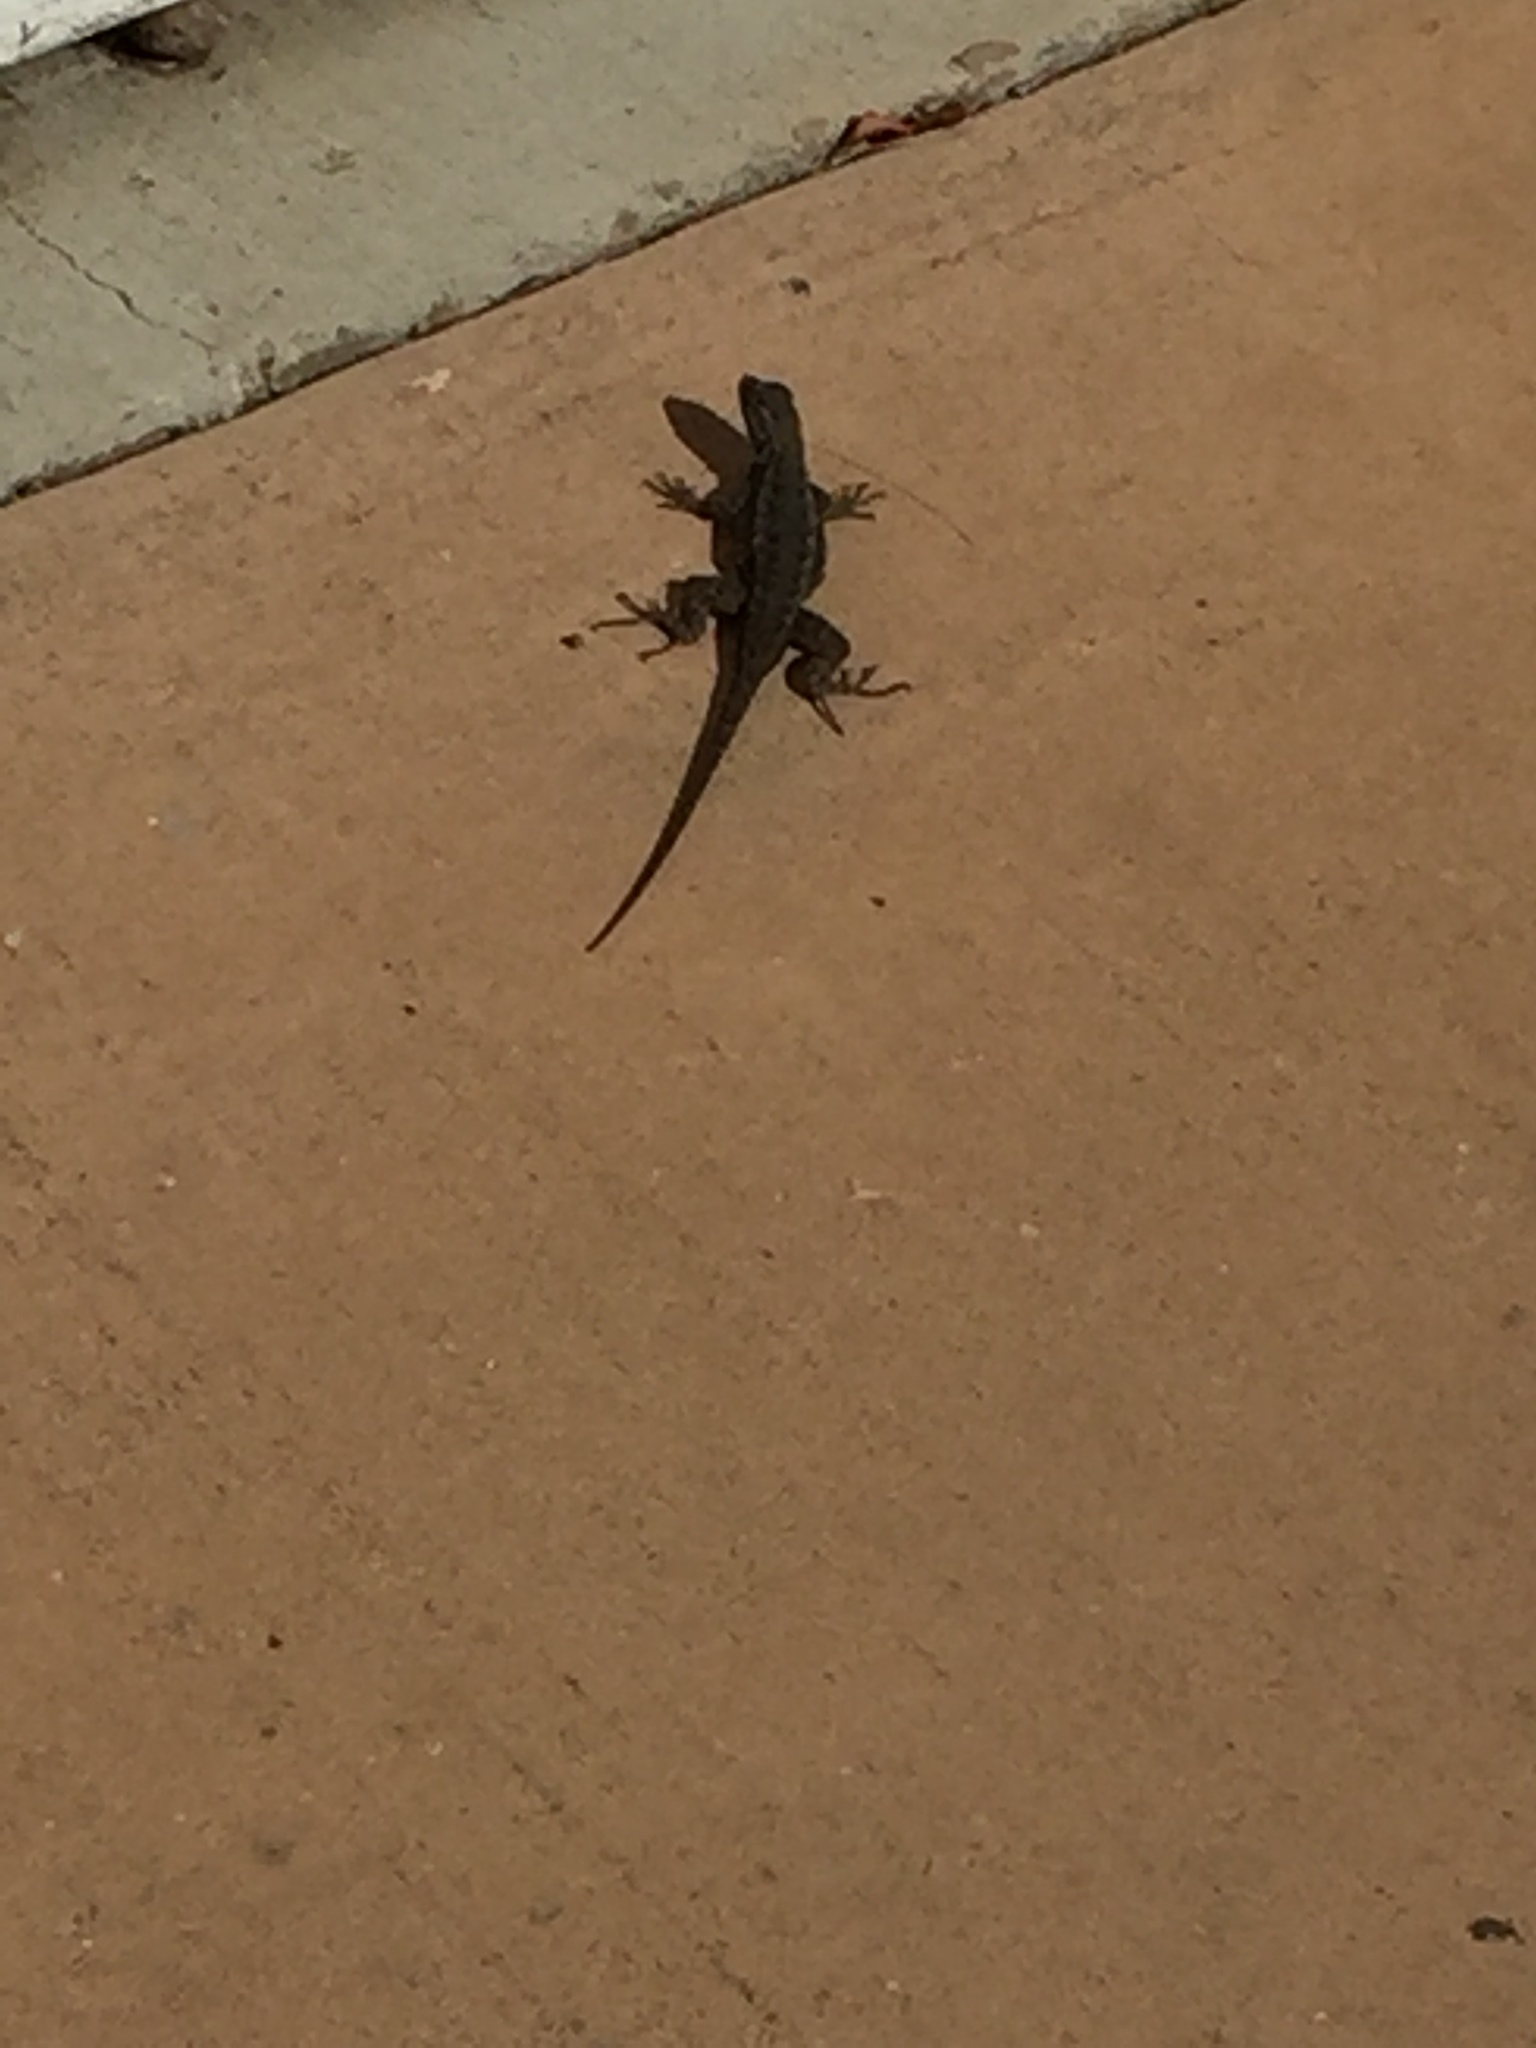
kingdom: Animalia
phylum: Chordata
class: Squamata
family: Phrynosomatidae
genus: Sceloporus
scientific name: Sceloporus occidentalis
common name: Western fence lizard
